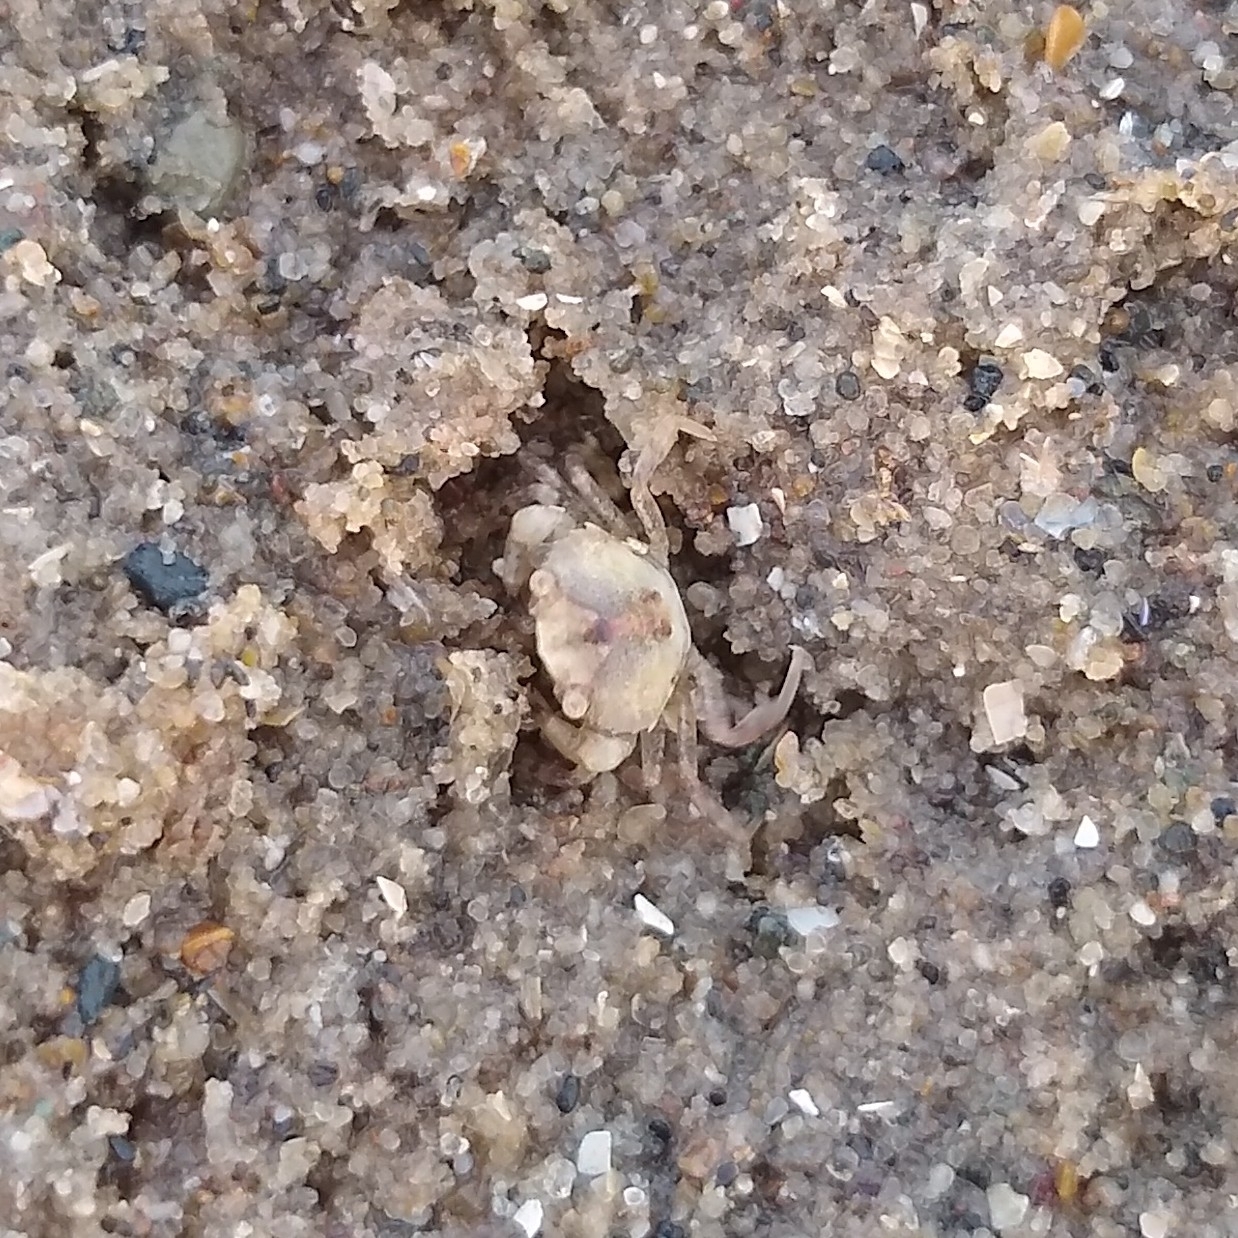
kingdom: Animalia
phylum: Arthropoda
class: Malacostraca
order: Decapoda
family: Carcinidae
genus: Carcinus
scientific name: Carcinus maenas
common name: European green crab
